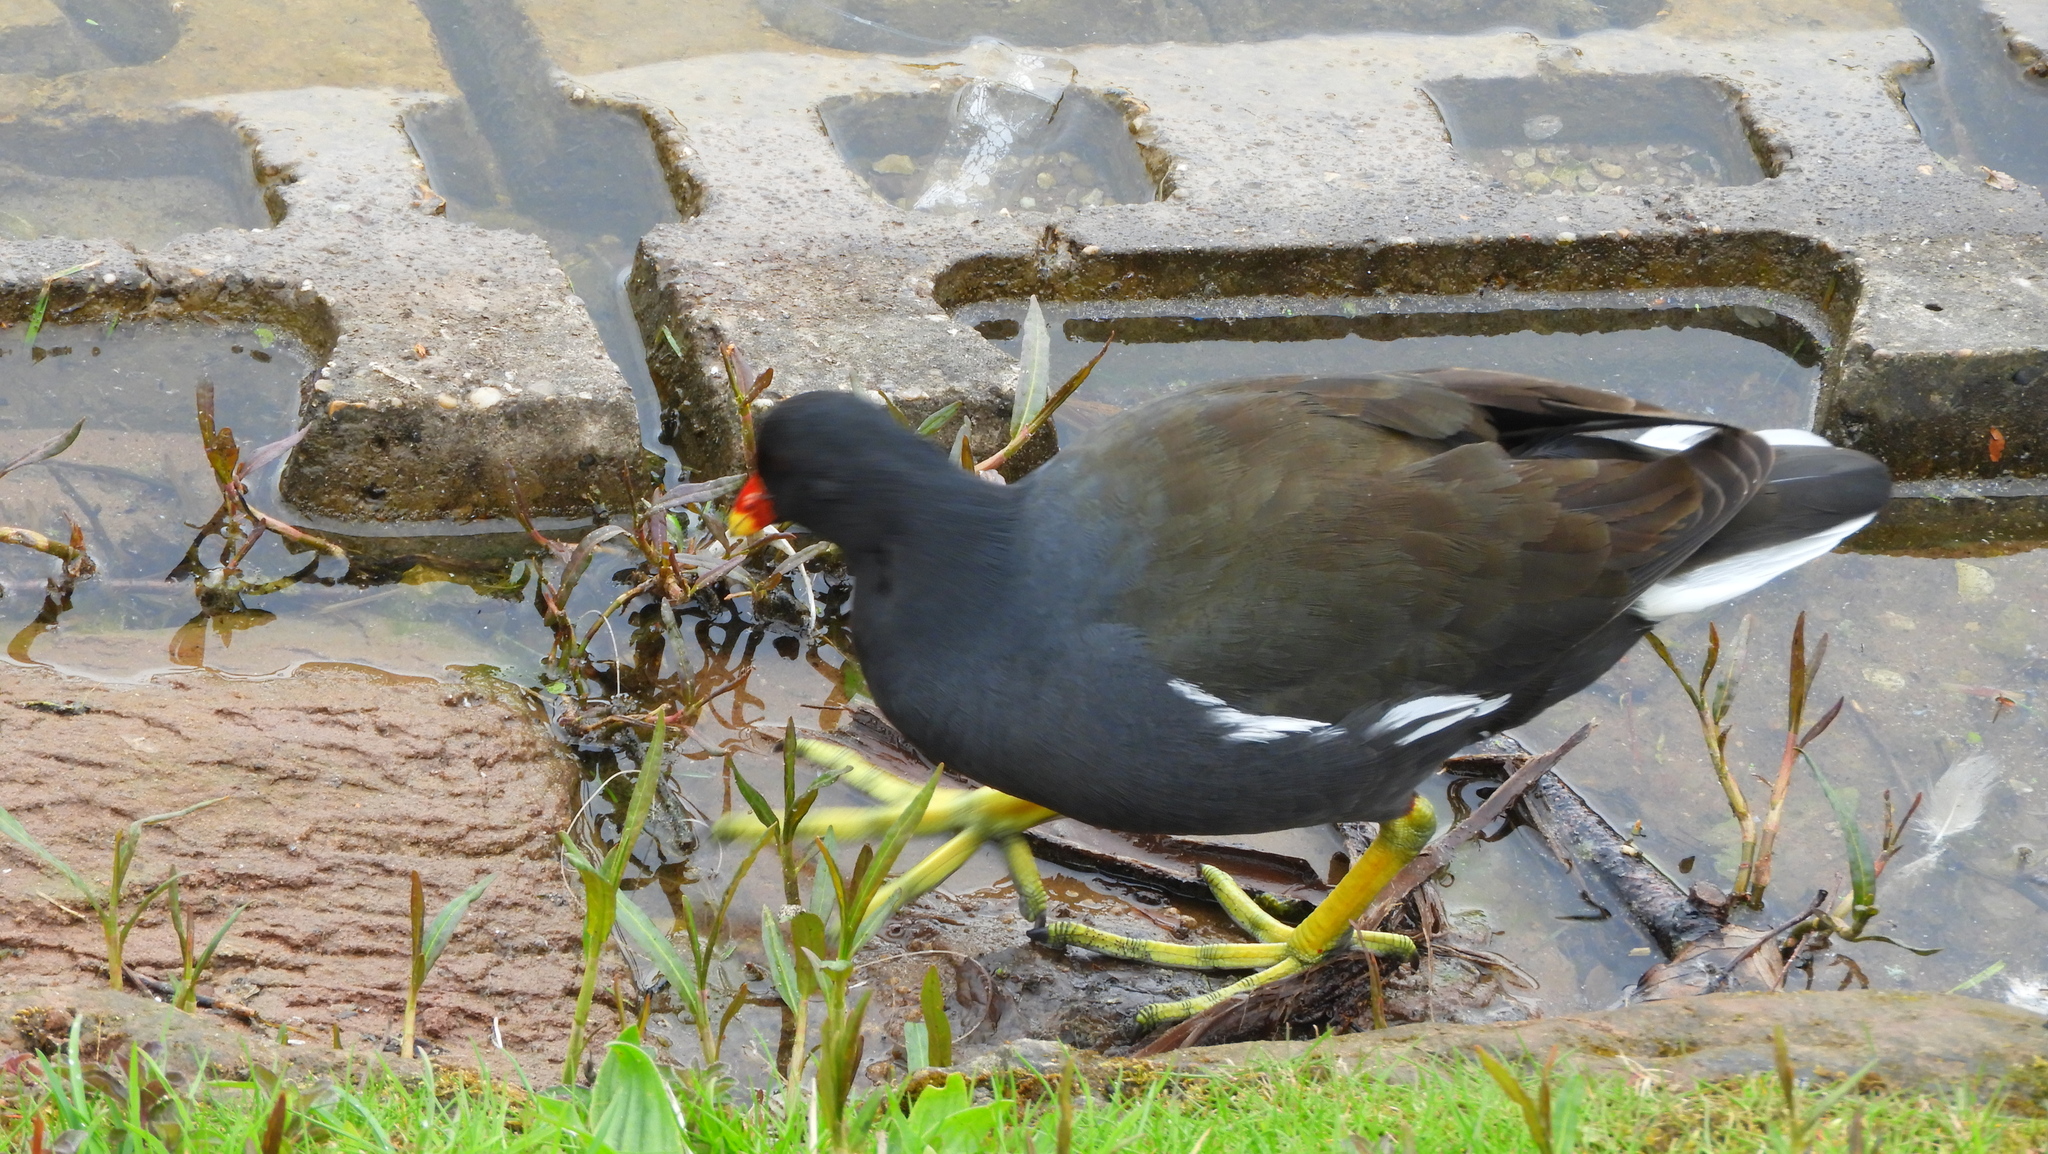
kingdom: Animalia
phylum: Chordata
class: Aves
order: Gruiformes
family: Rallidae
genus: Gallinula
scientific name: Gallinula chloropus
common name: Common moorhen
